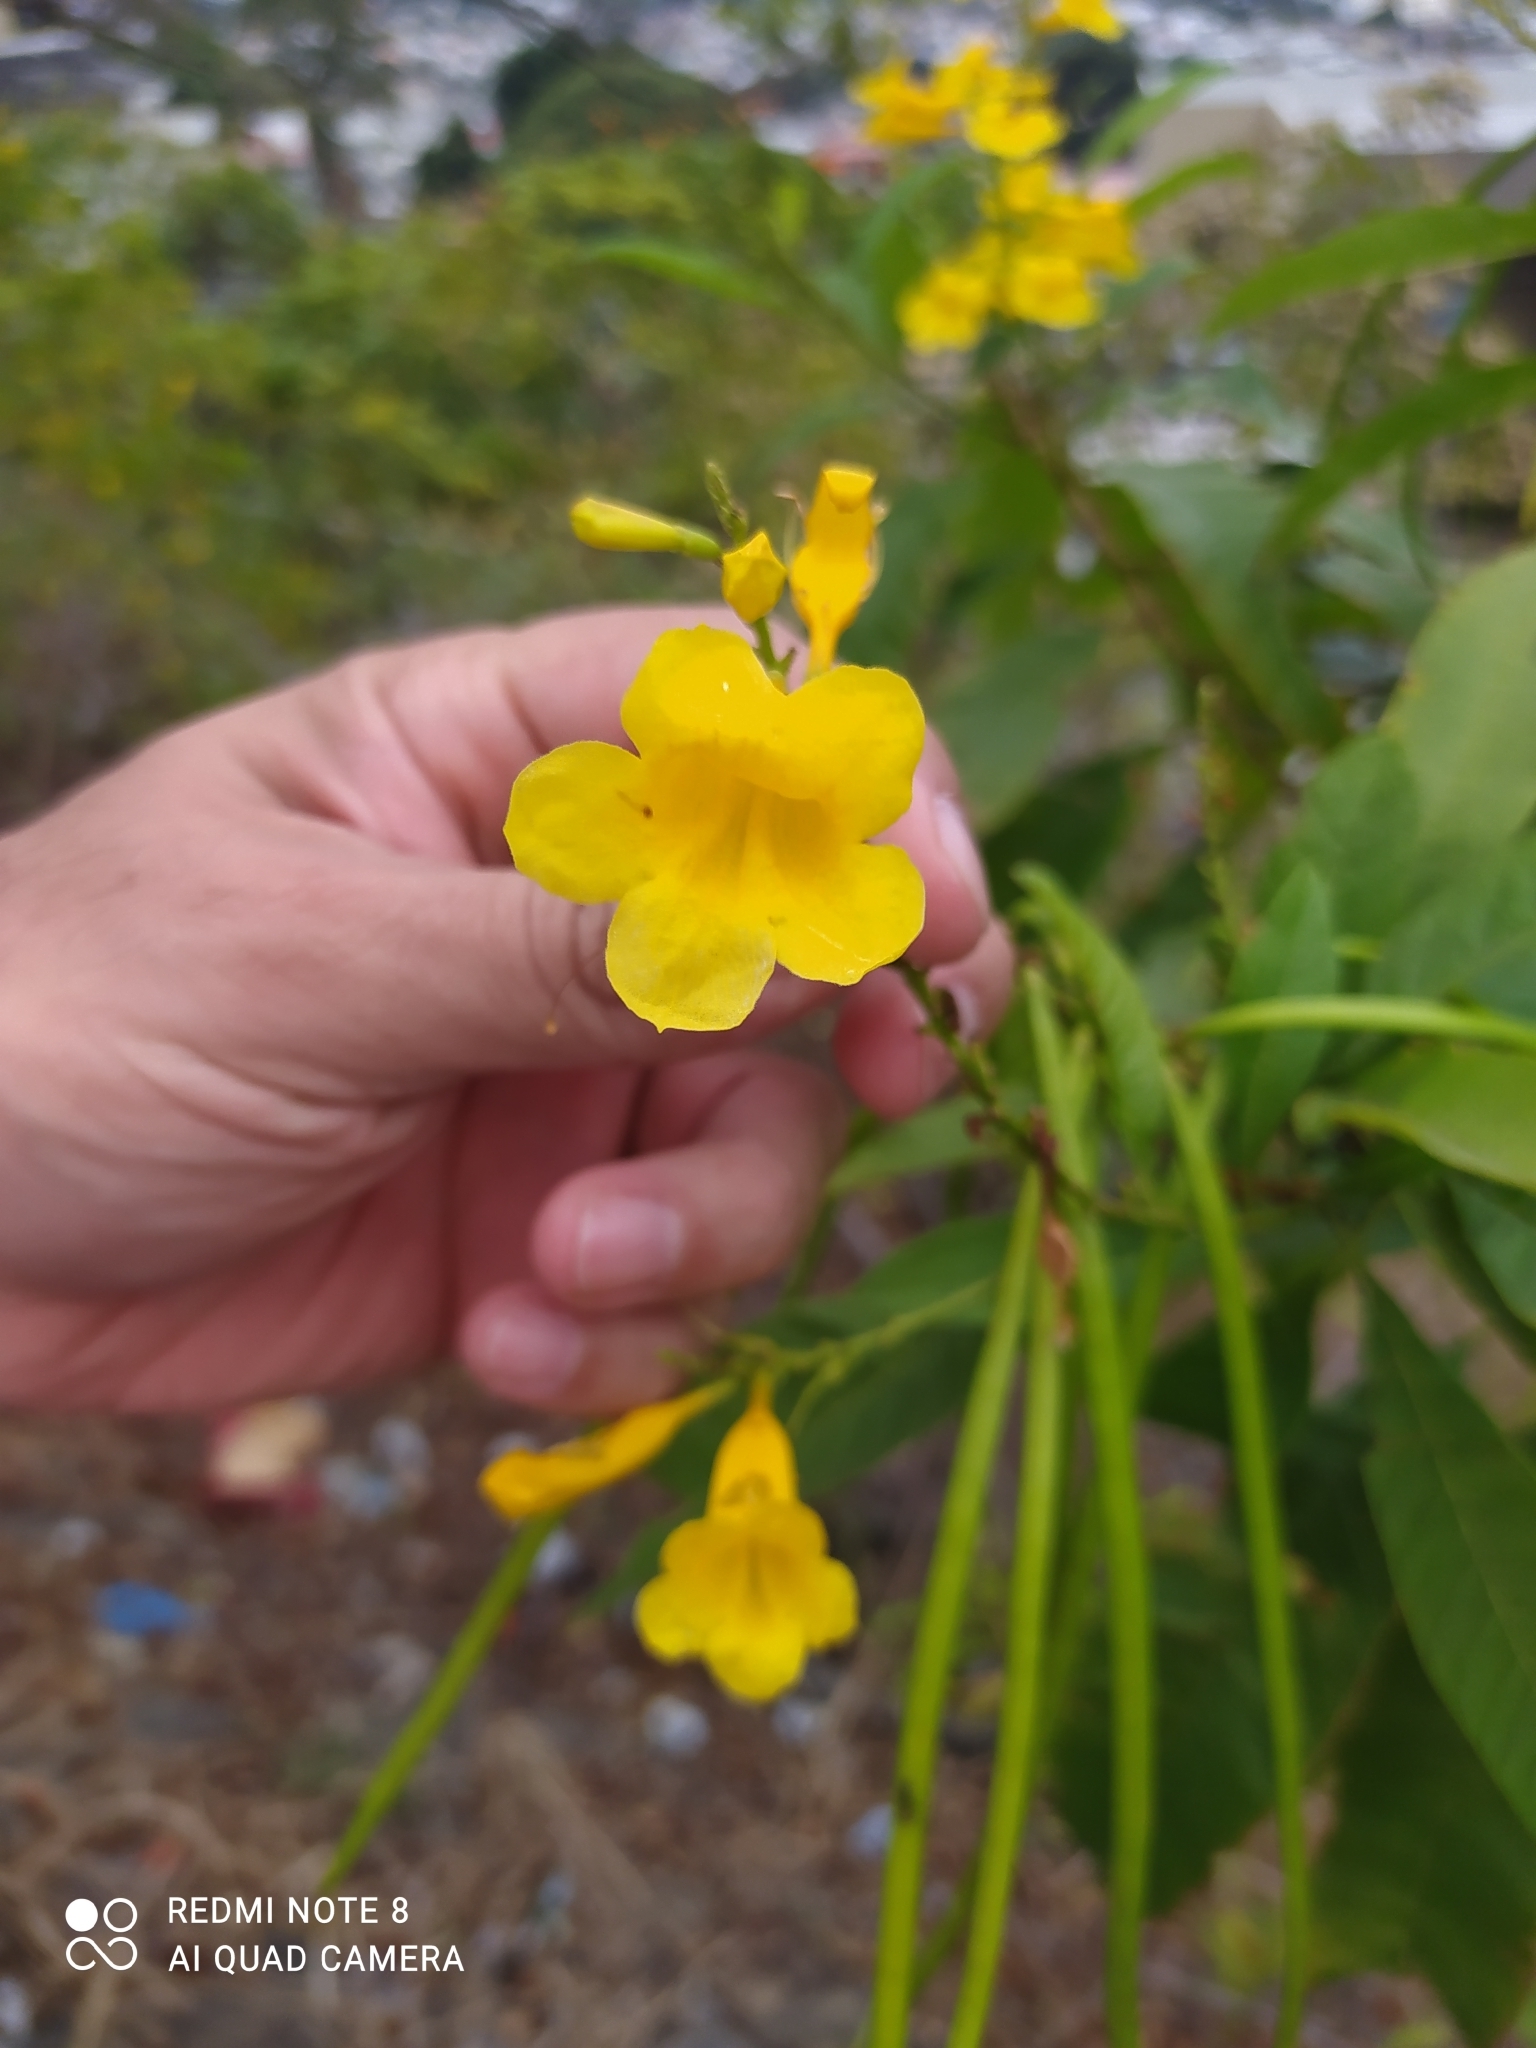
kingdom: Plantae
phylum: Tracheophyta
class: Magnoliopsida
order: Lamiales
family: Bignoniaceae
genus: Tecoma
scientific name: Tecoma castanifolia
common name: Chestnutleaf trumpetbush
